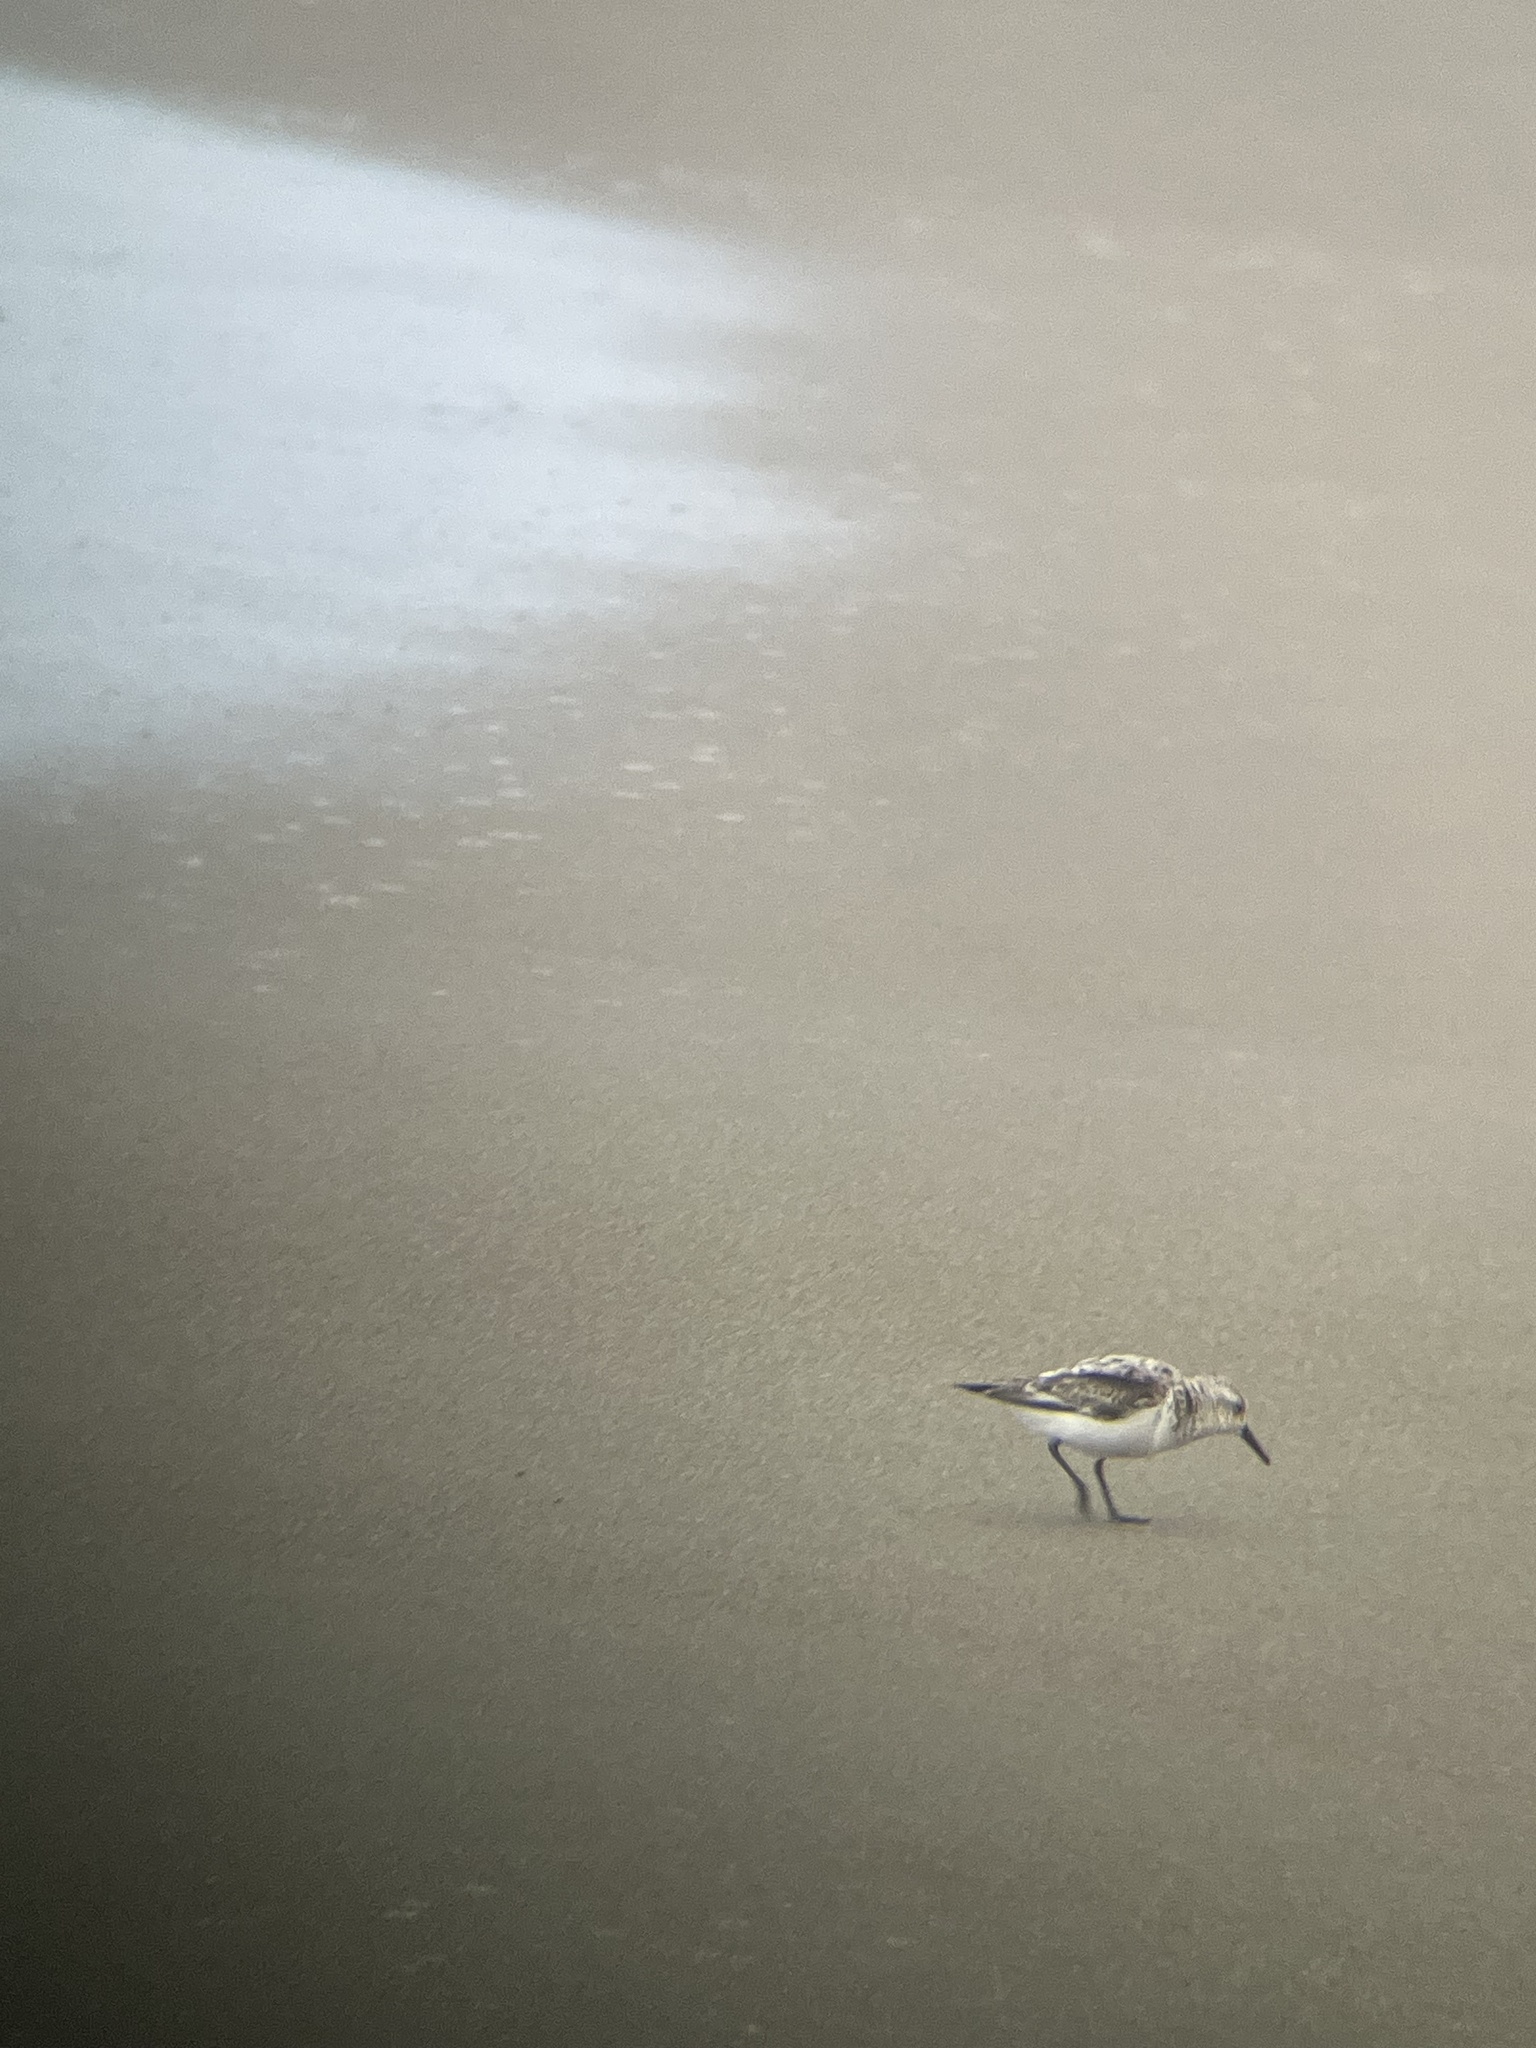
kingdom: Animalia
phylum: Chordata
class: Aves
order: Charadriiformes
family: Scolopacidae
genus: Calidris
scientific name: Calidris alba
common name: Sanderling
